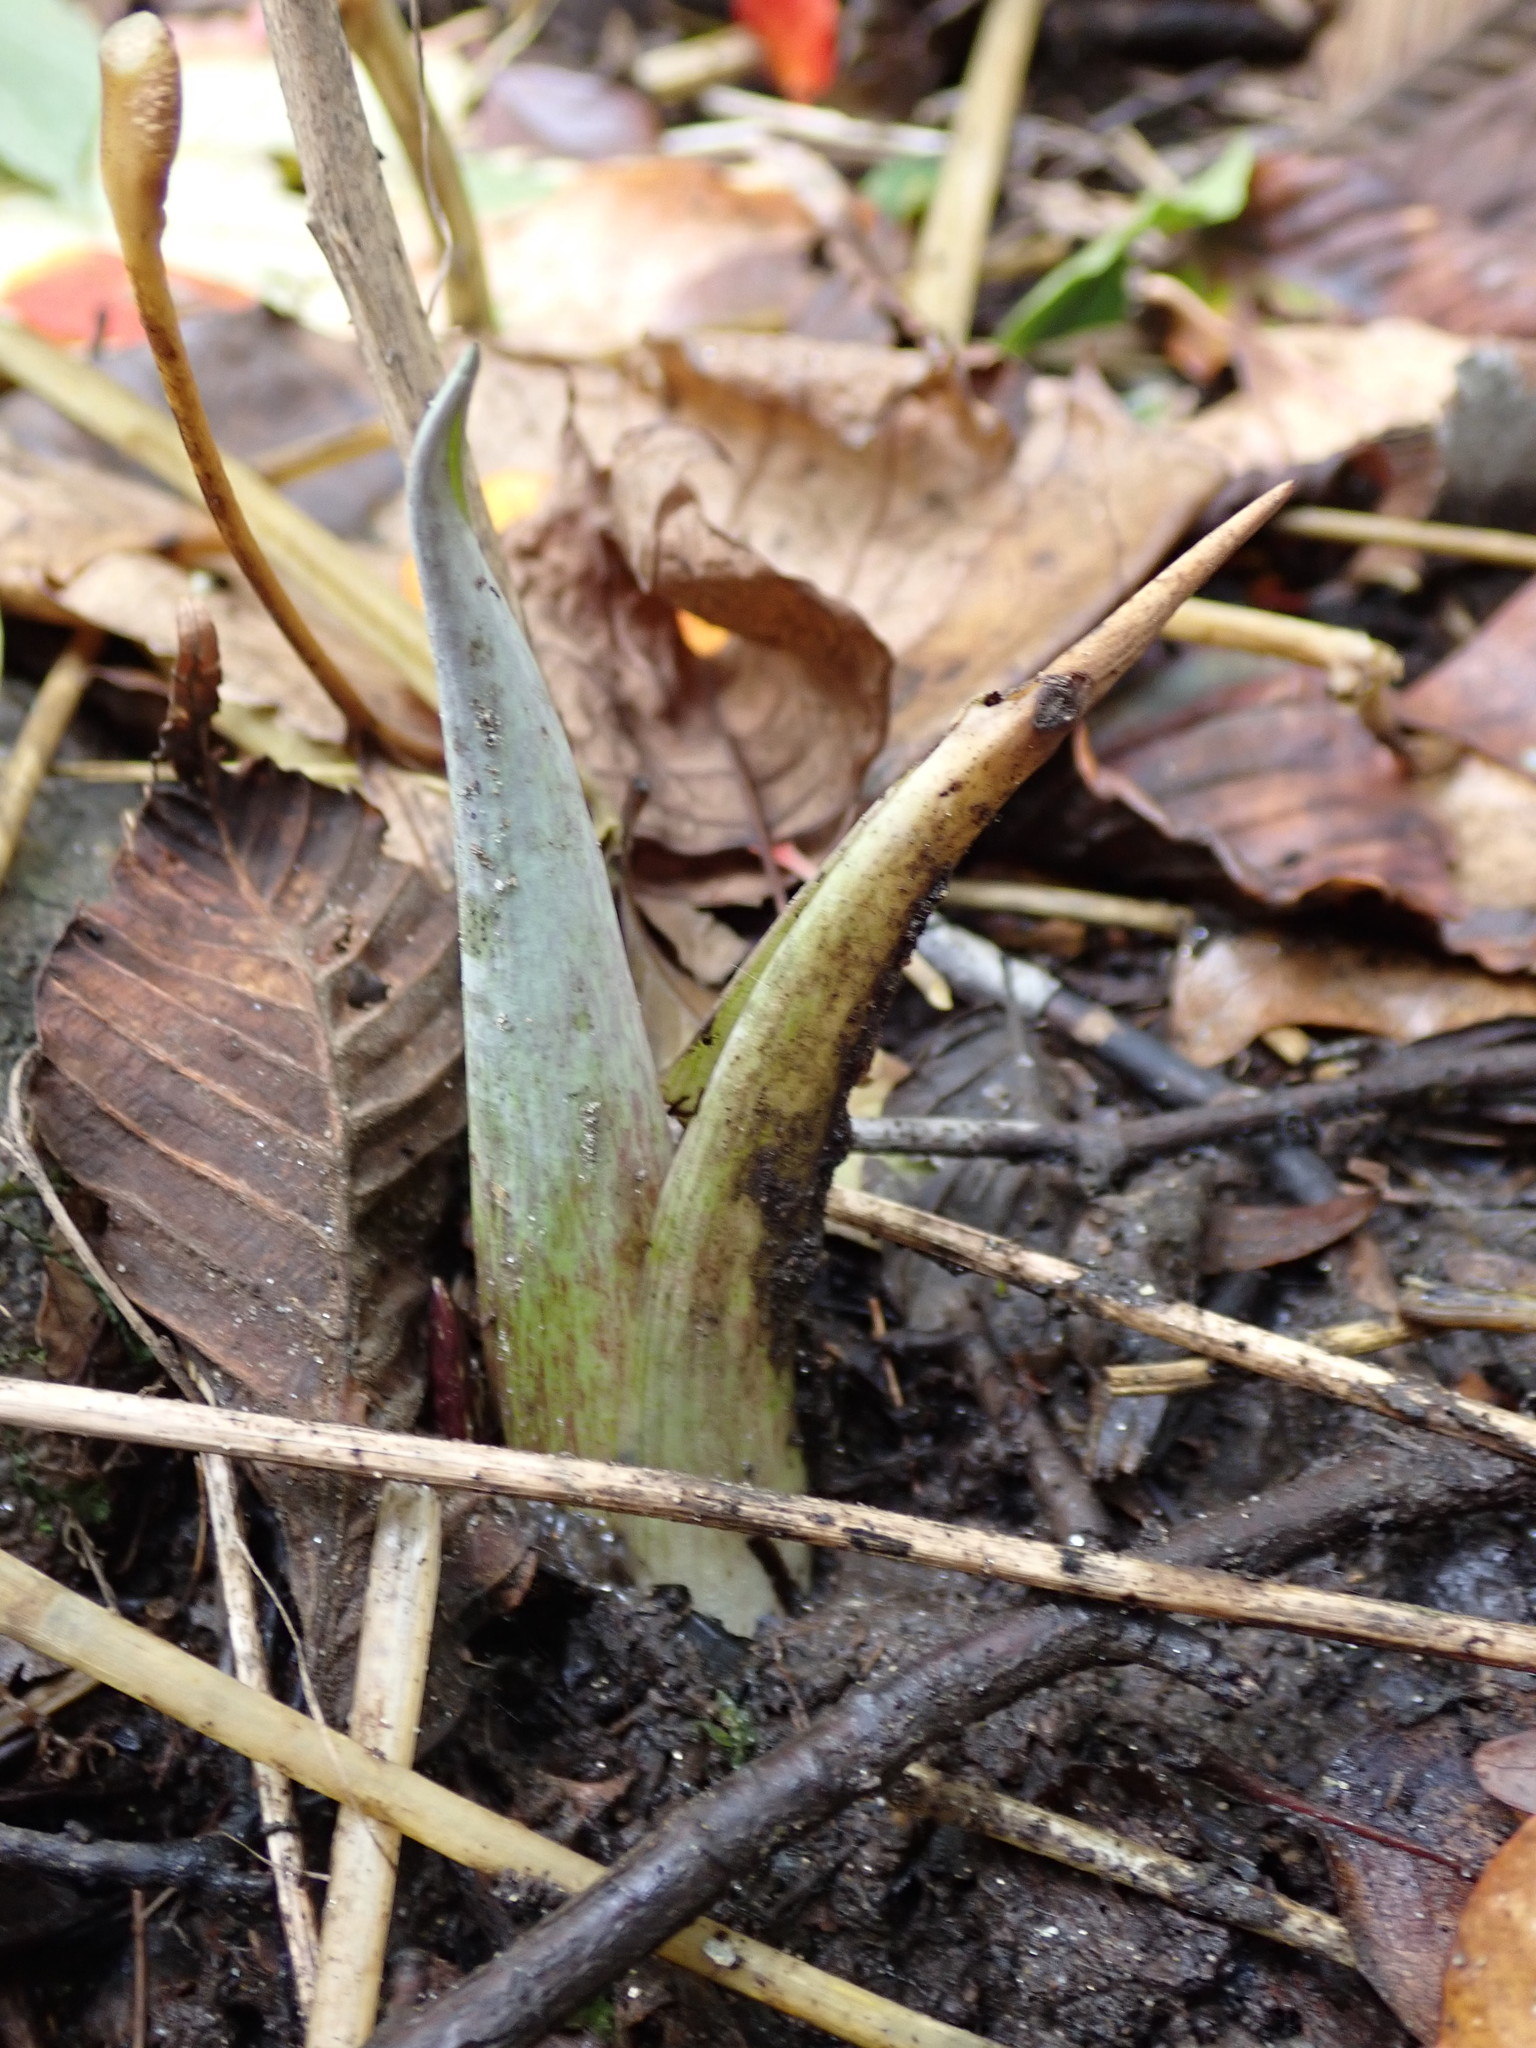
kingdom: Plantae
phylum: Tracheophyta
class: Liliopsida
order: Alismatales
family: Araceae
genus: Symplocarpus
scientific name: Symplocarpus foetidus
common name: Eastern skunk cabbage
